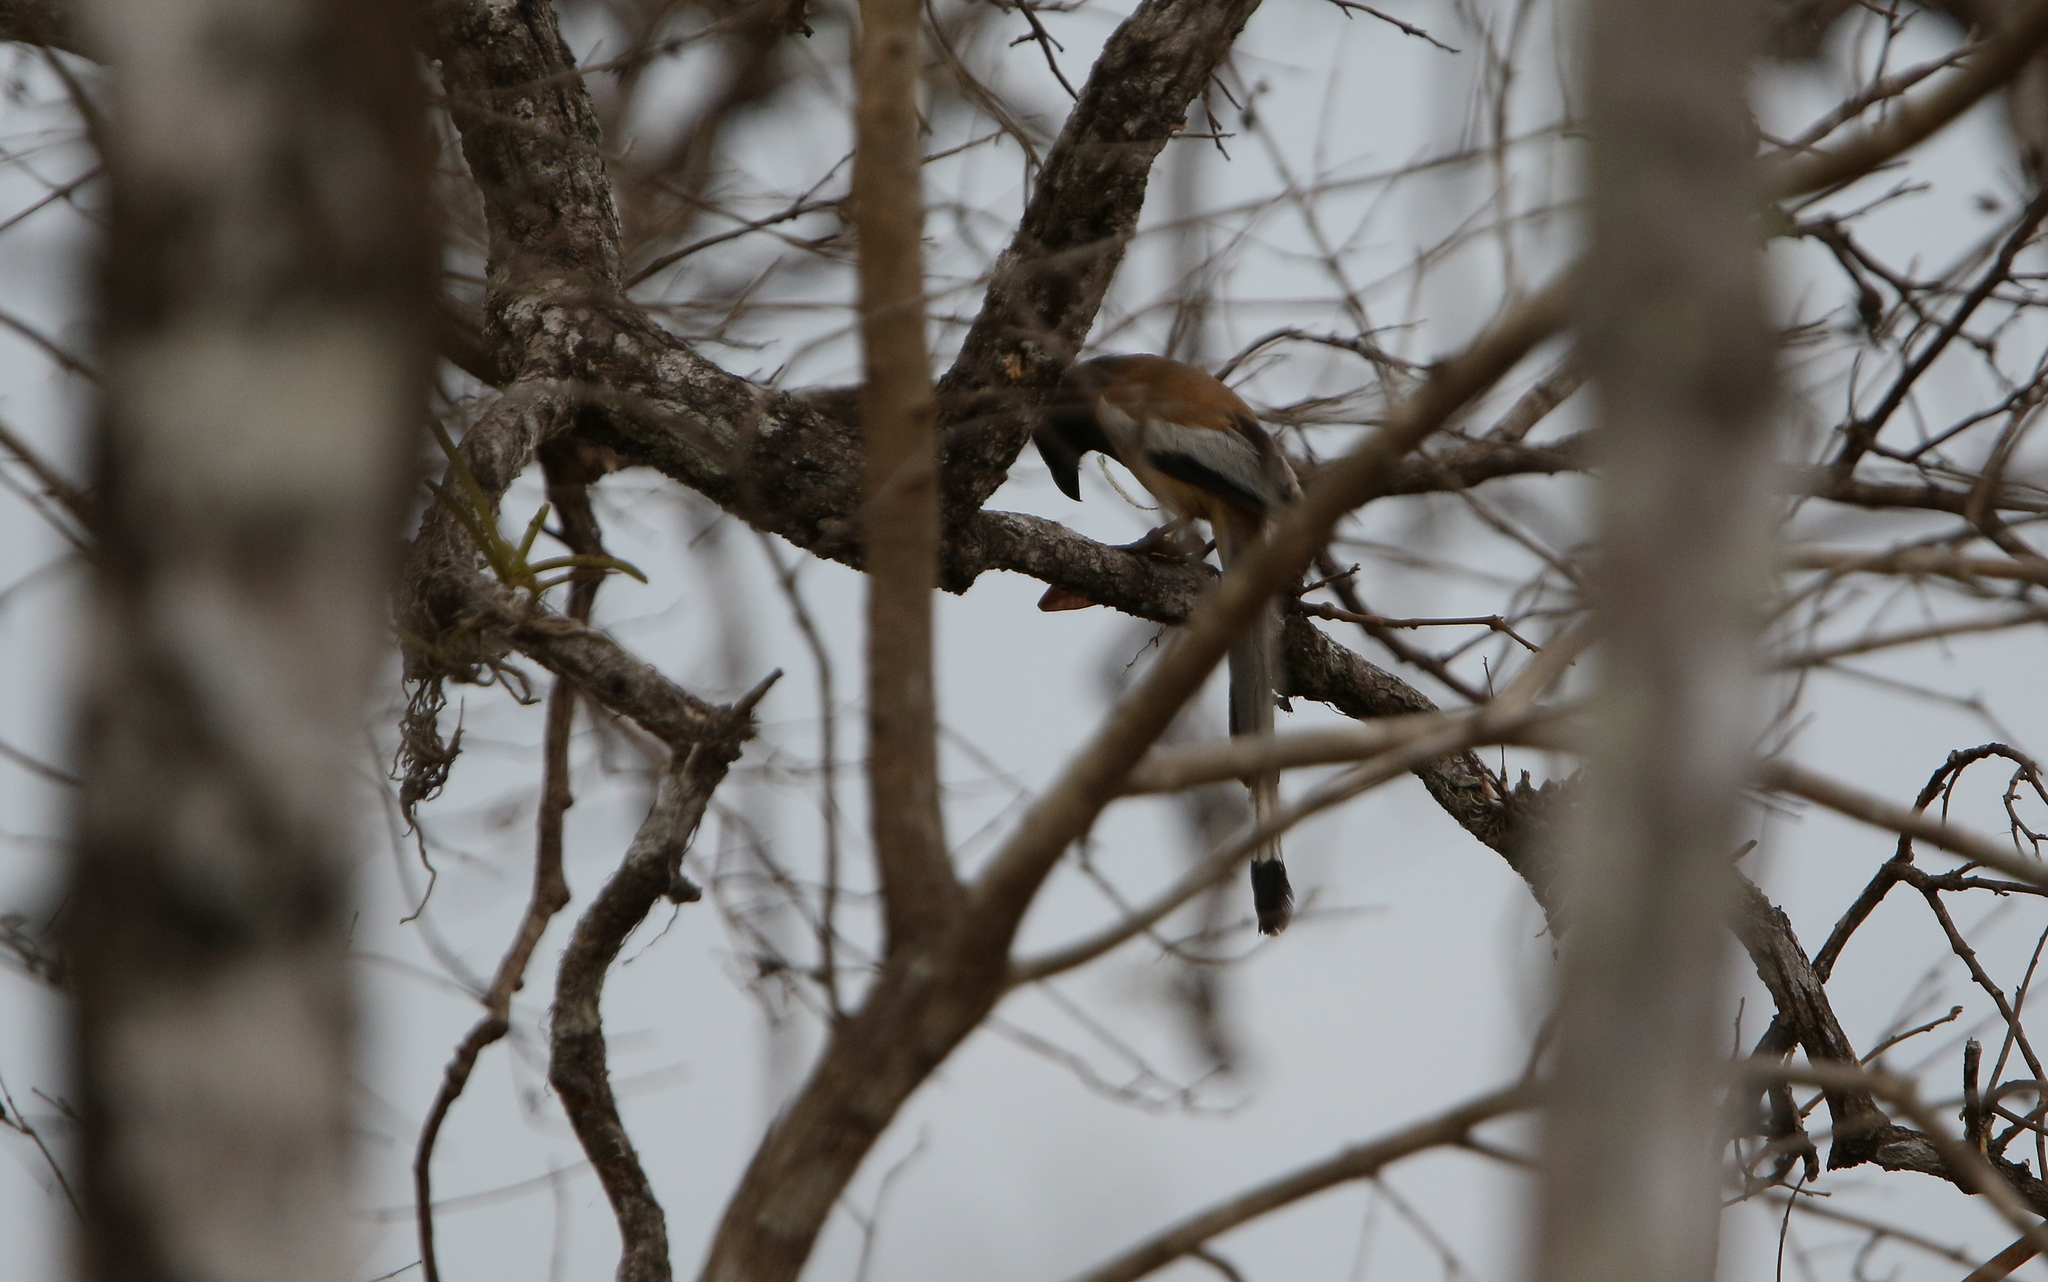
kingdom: Animalia
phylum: Chordata
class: Aves
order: Passeriformes
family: Corvidae
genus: Dendrocitta
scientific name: Dendrocitta vagabunda
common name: Rufous treepie
